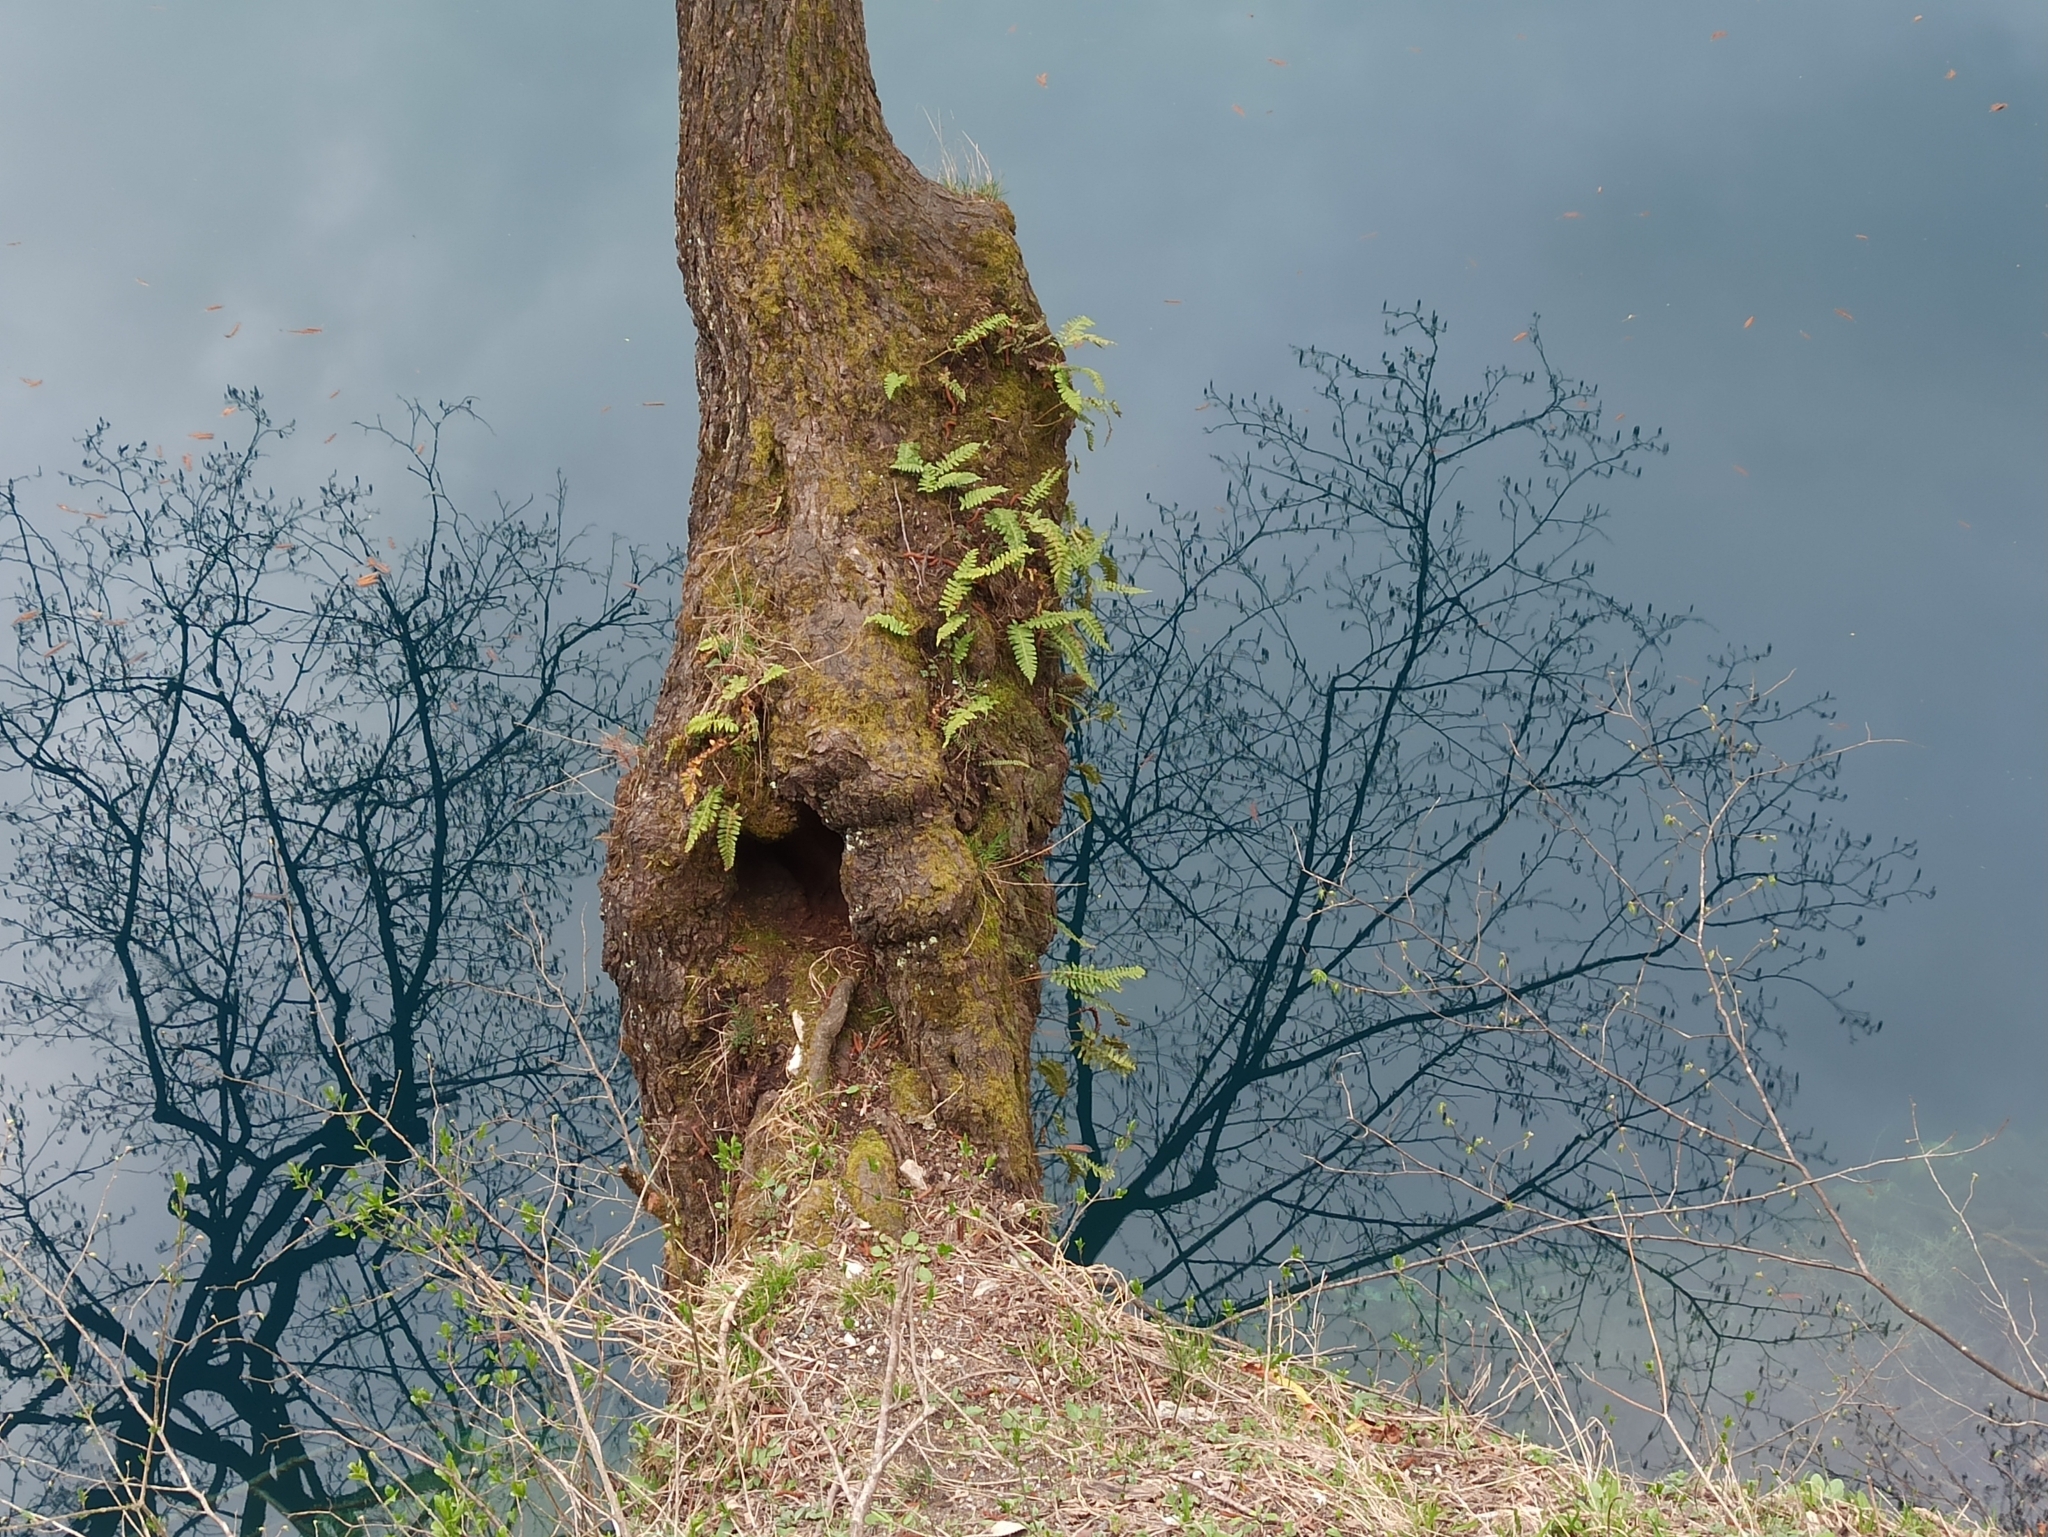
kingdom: Plantae
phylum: Tracheophyta
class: Polypodiopsida
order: Polypodiales
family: Polypodiaceae
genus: Polypodium
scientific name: Polypodium vulgare
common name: Common polypody
